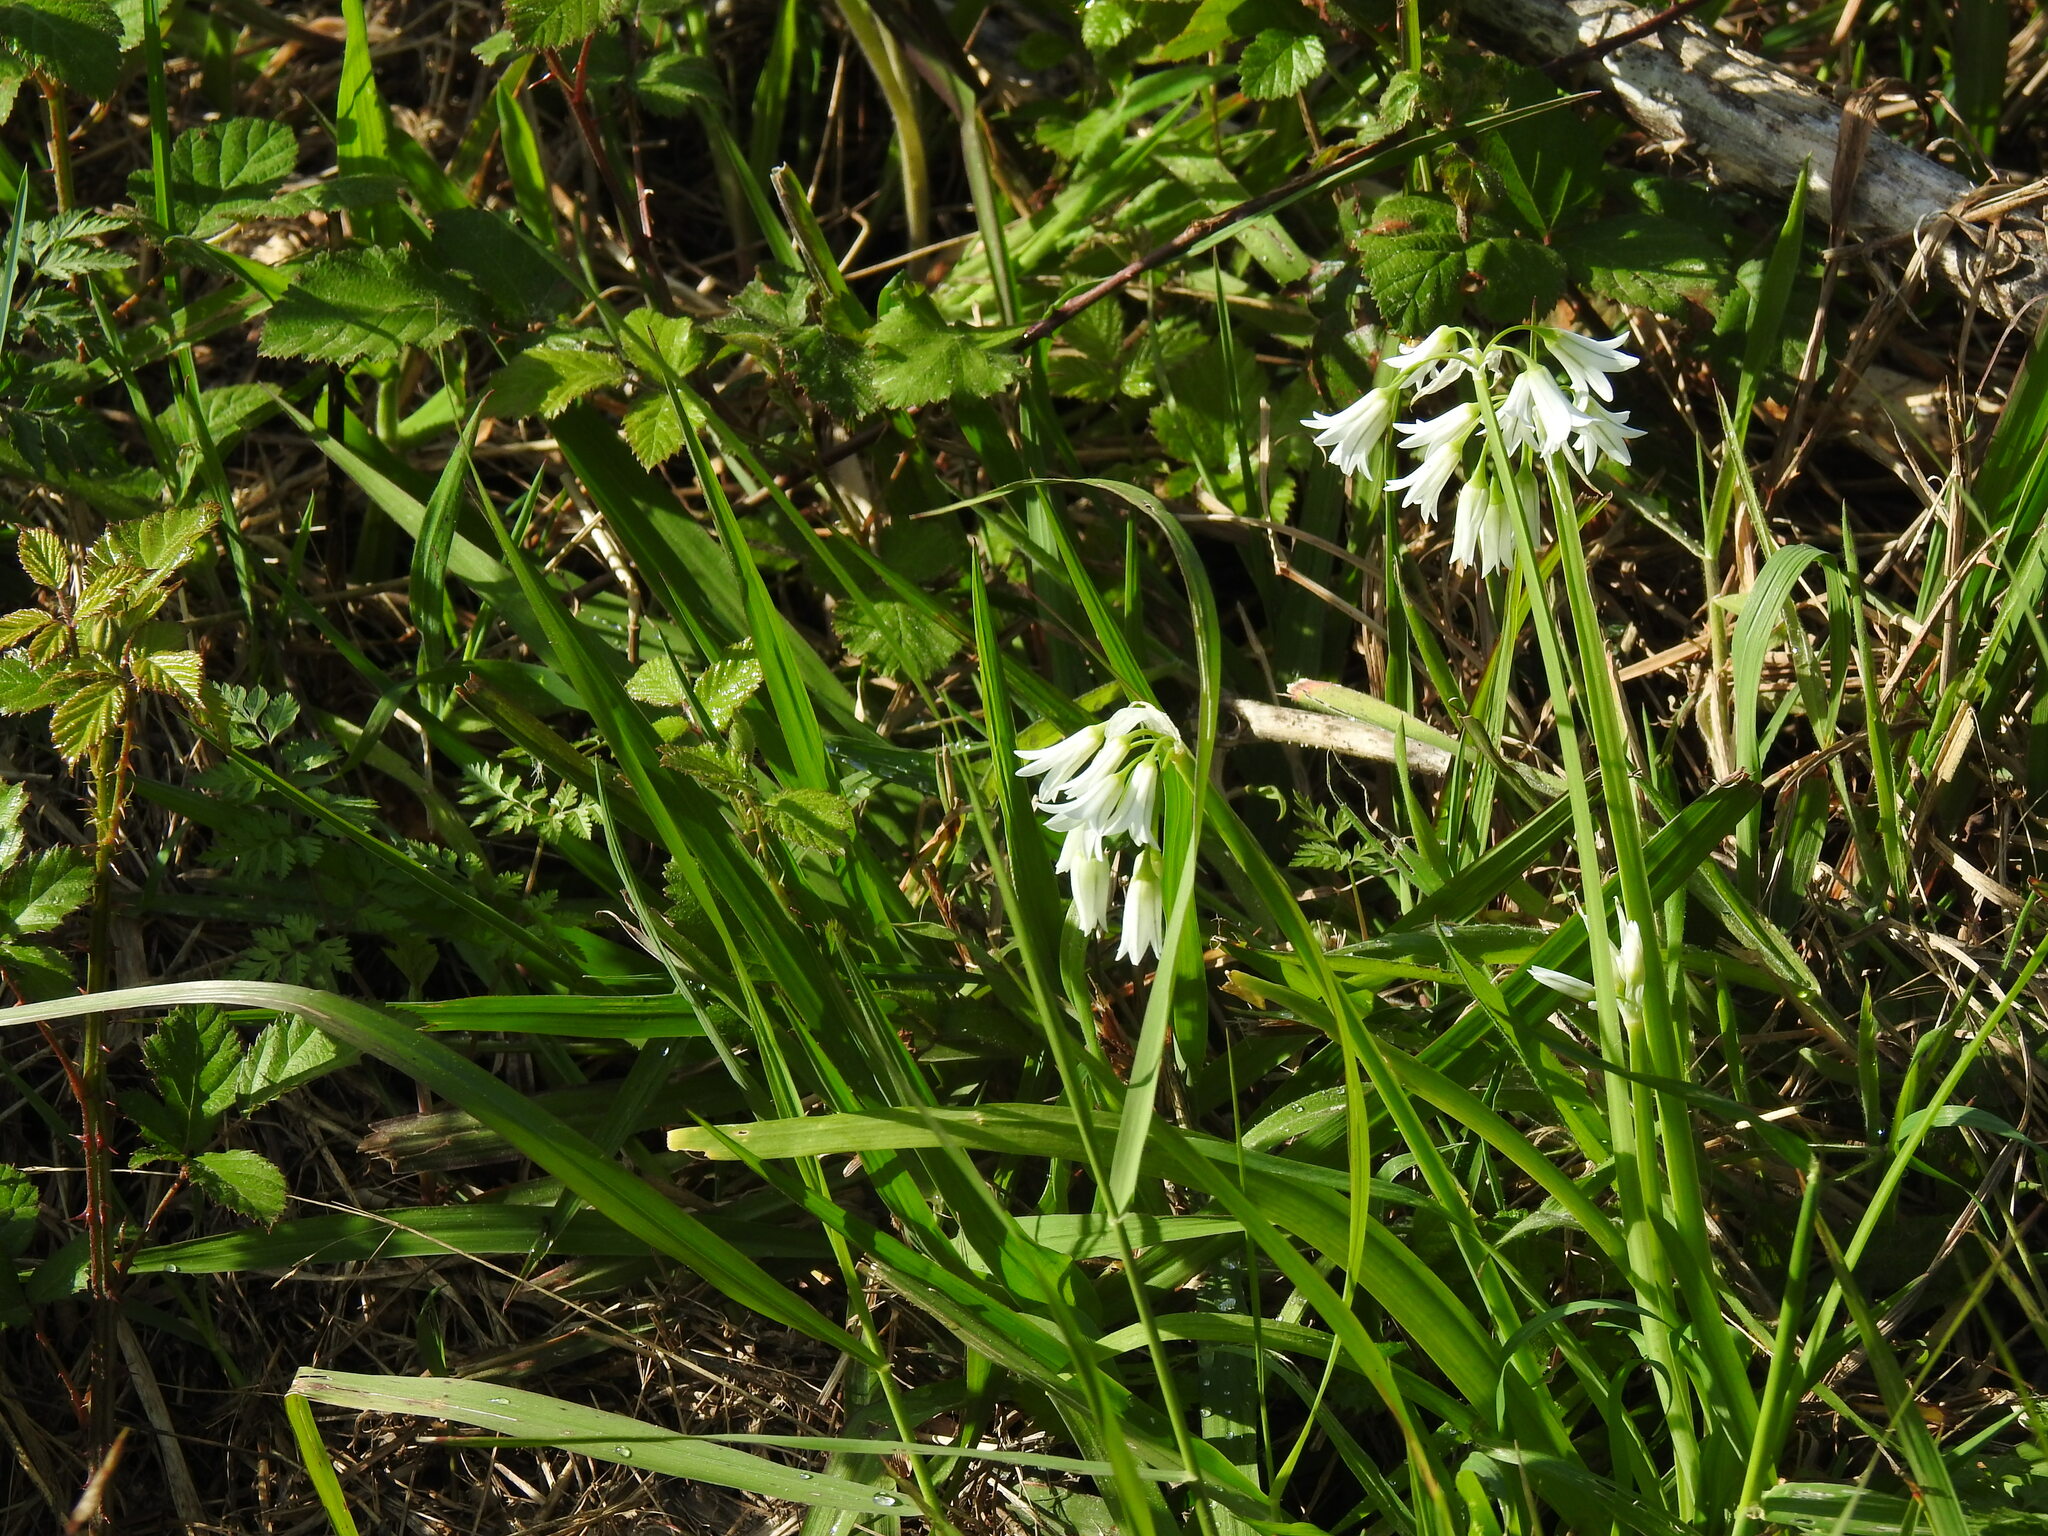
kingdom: Plantae
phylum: Tracheophyta
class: Liliopsida
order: Asparagales
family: Amaryllidaceae
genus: Allium
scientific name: Allium triquetrum
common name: Three-cornered garlic
